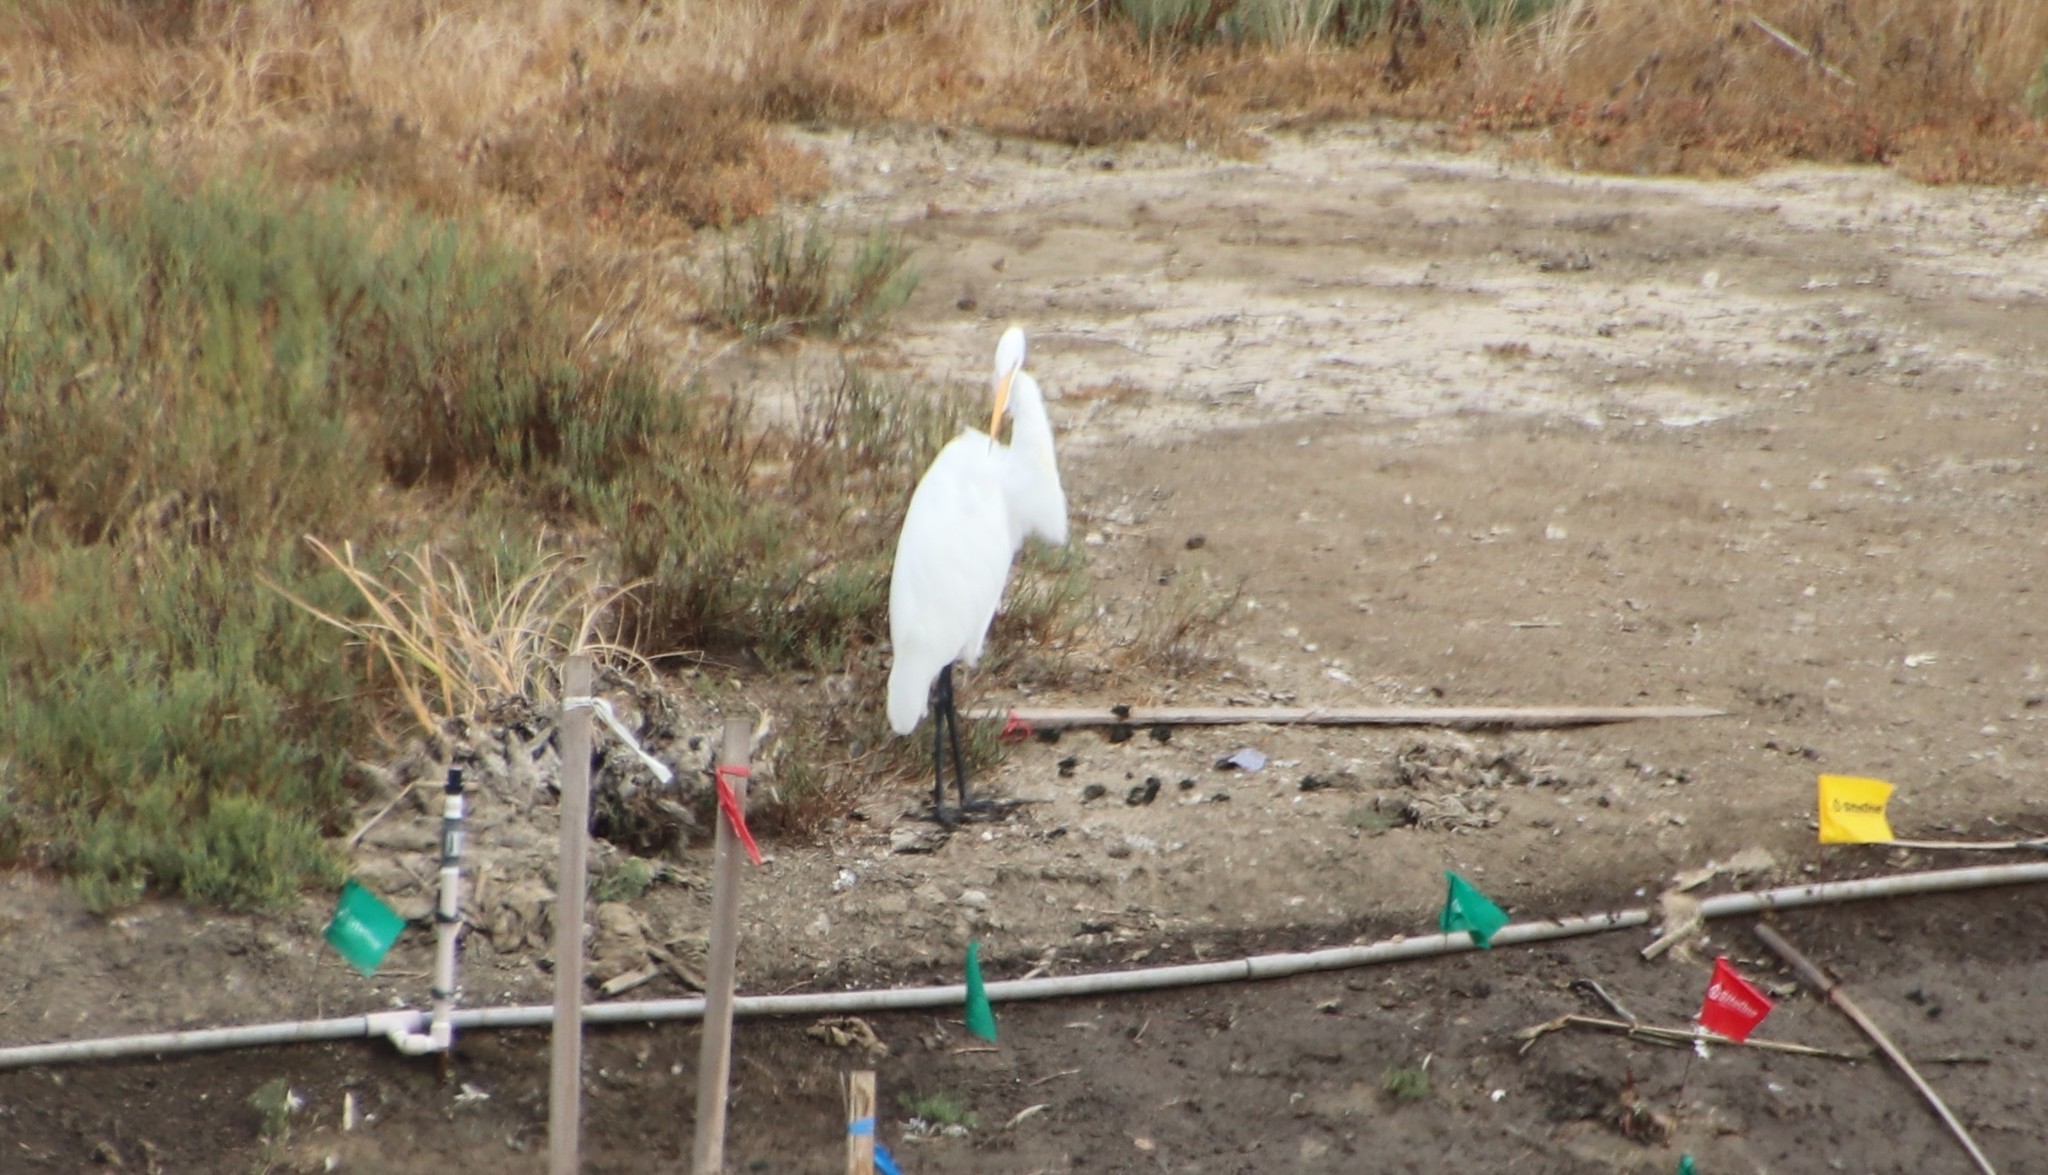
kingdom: Animalia
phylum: Chordata
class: Aves
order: Pelecaniformes
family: Ardeidae
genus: Ardea
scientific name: Ardea alba
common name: Great egret
